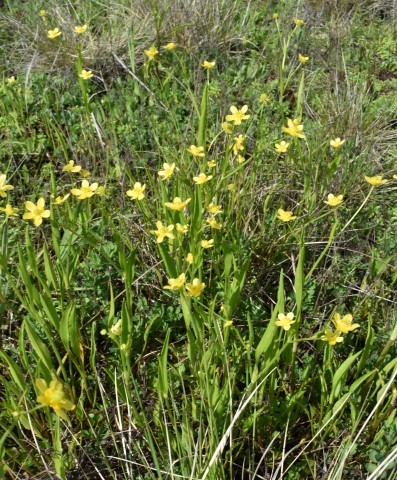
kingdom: Plantae
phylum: Tracheophyta
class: Magnoliopsida
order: Ranunculales
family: Ranunculaceae
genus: Ranunculus
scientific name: Ranunculus alismifolius
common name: Plantain-leaved buttercup
